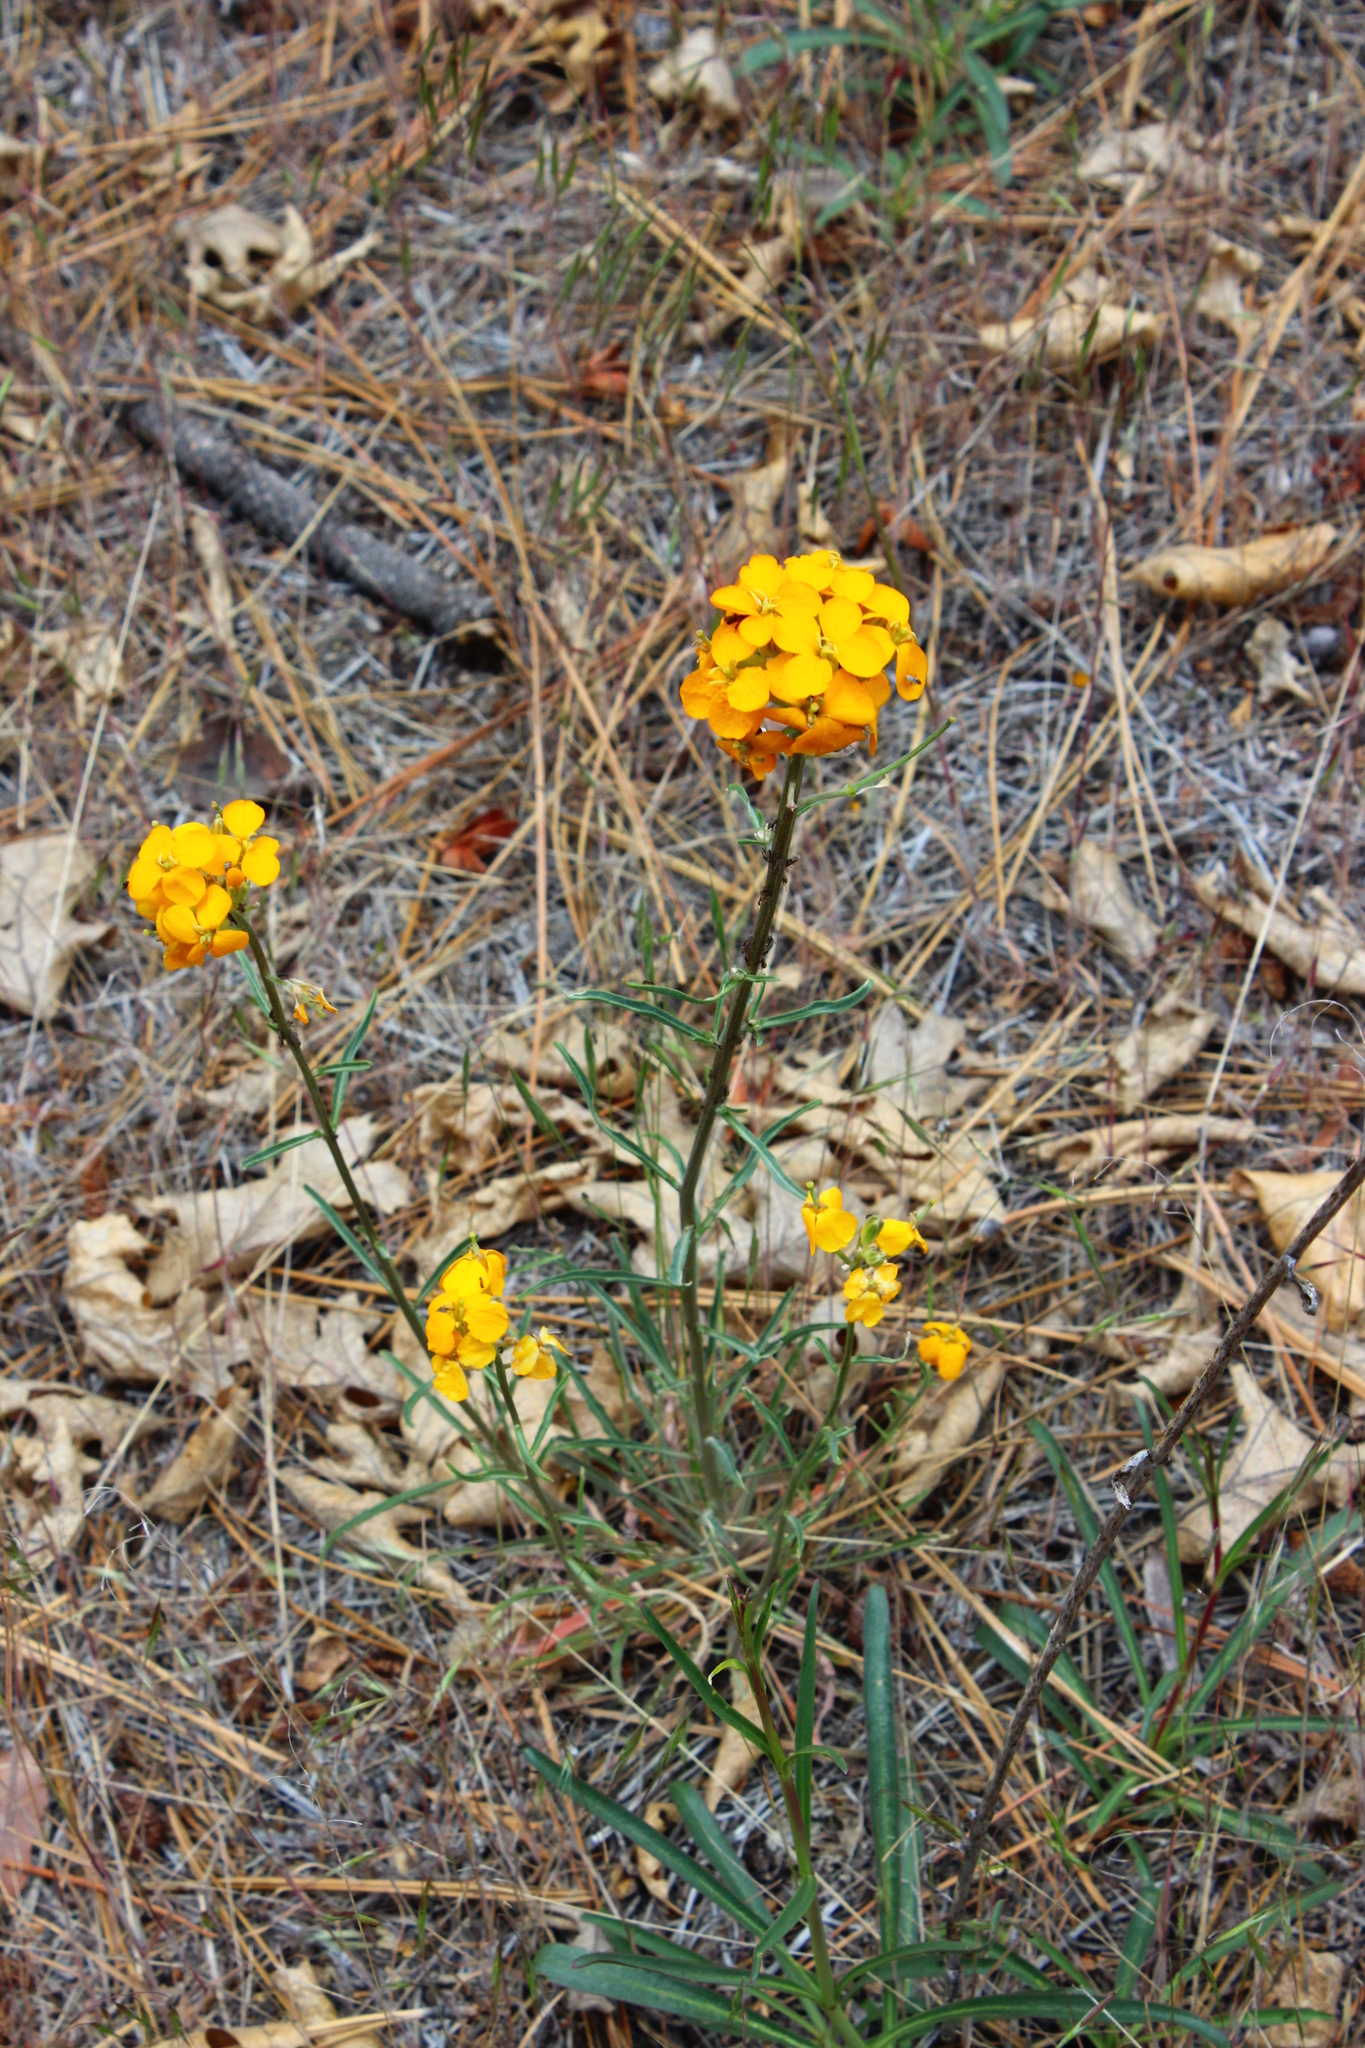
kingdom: Plantae
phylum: Tracheophyta
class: Magnoliopsida
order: Brassicales
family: Brassicaceae
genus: Erysimum
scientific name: Erysimum capitatum
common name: Western wallflower
